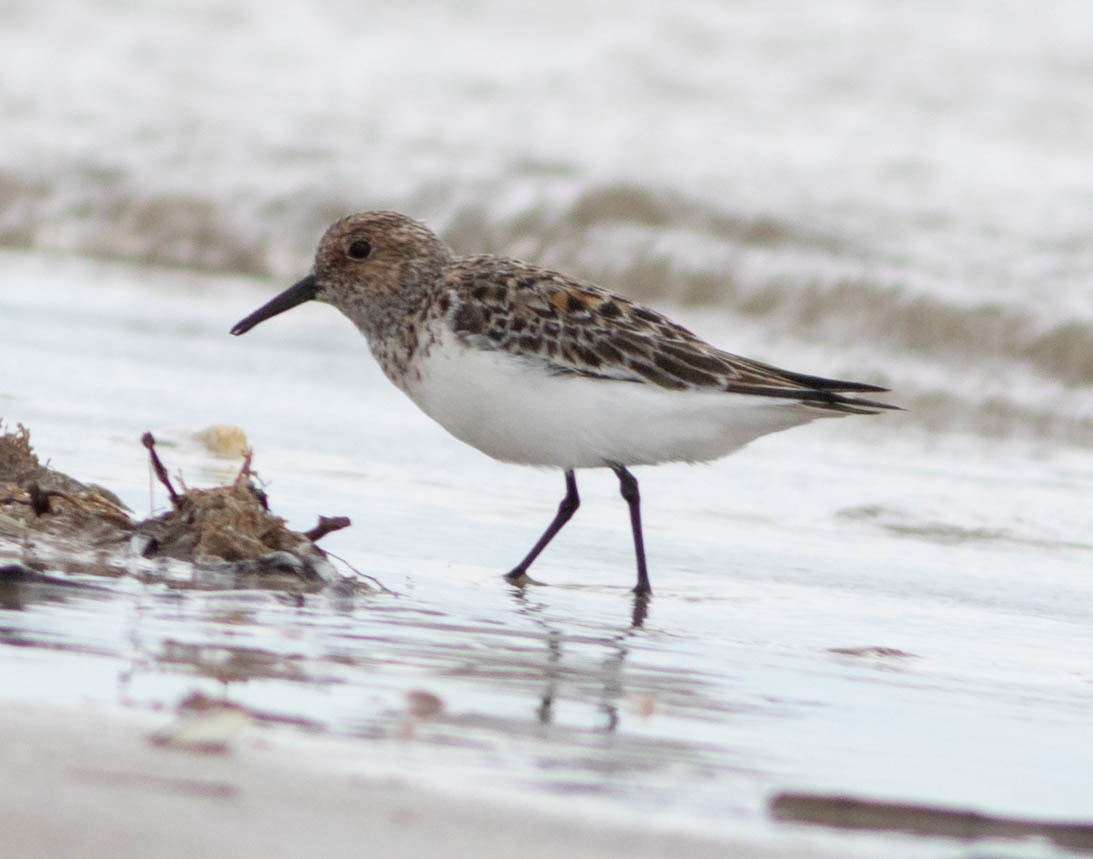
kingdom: Animalia
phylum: Chordata
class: Aves
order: Charadriiformes
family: Scolopacidae
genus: Calidris
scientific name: Calidris alba
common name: Sanderling
